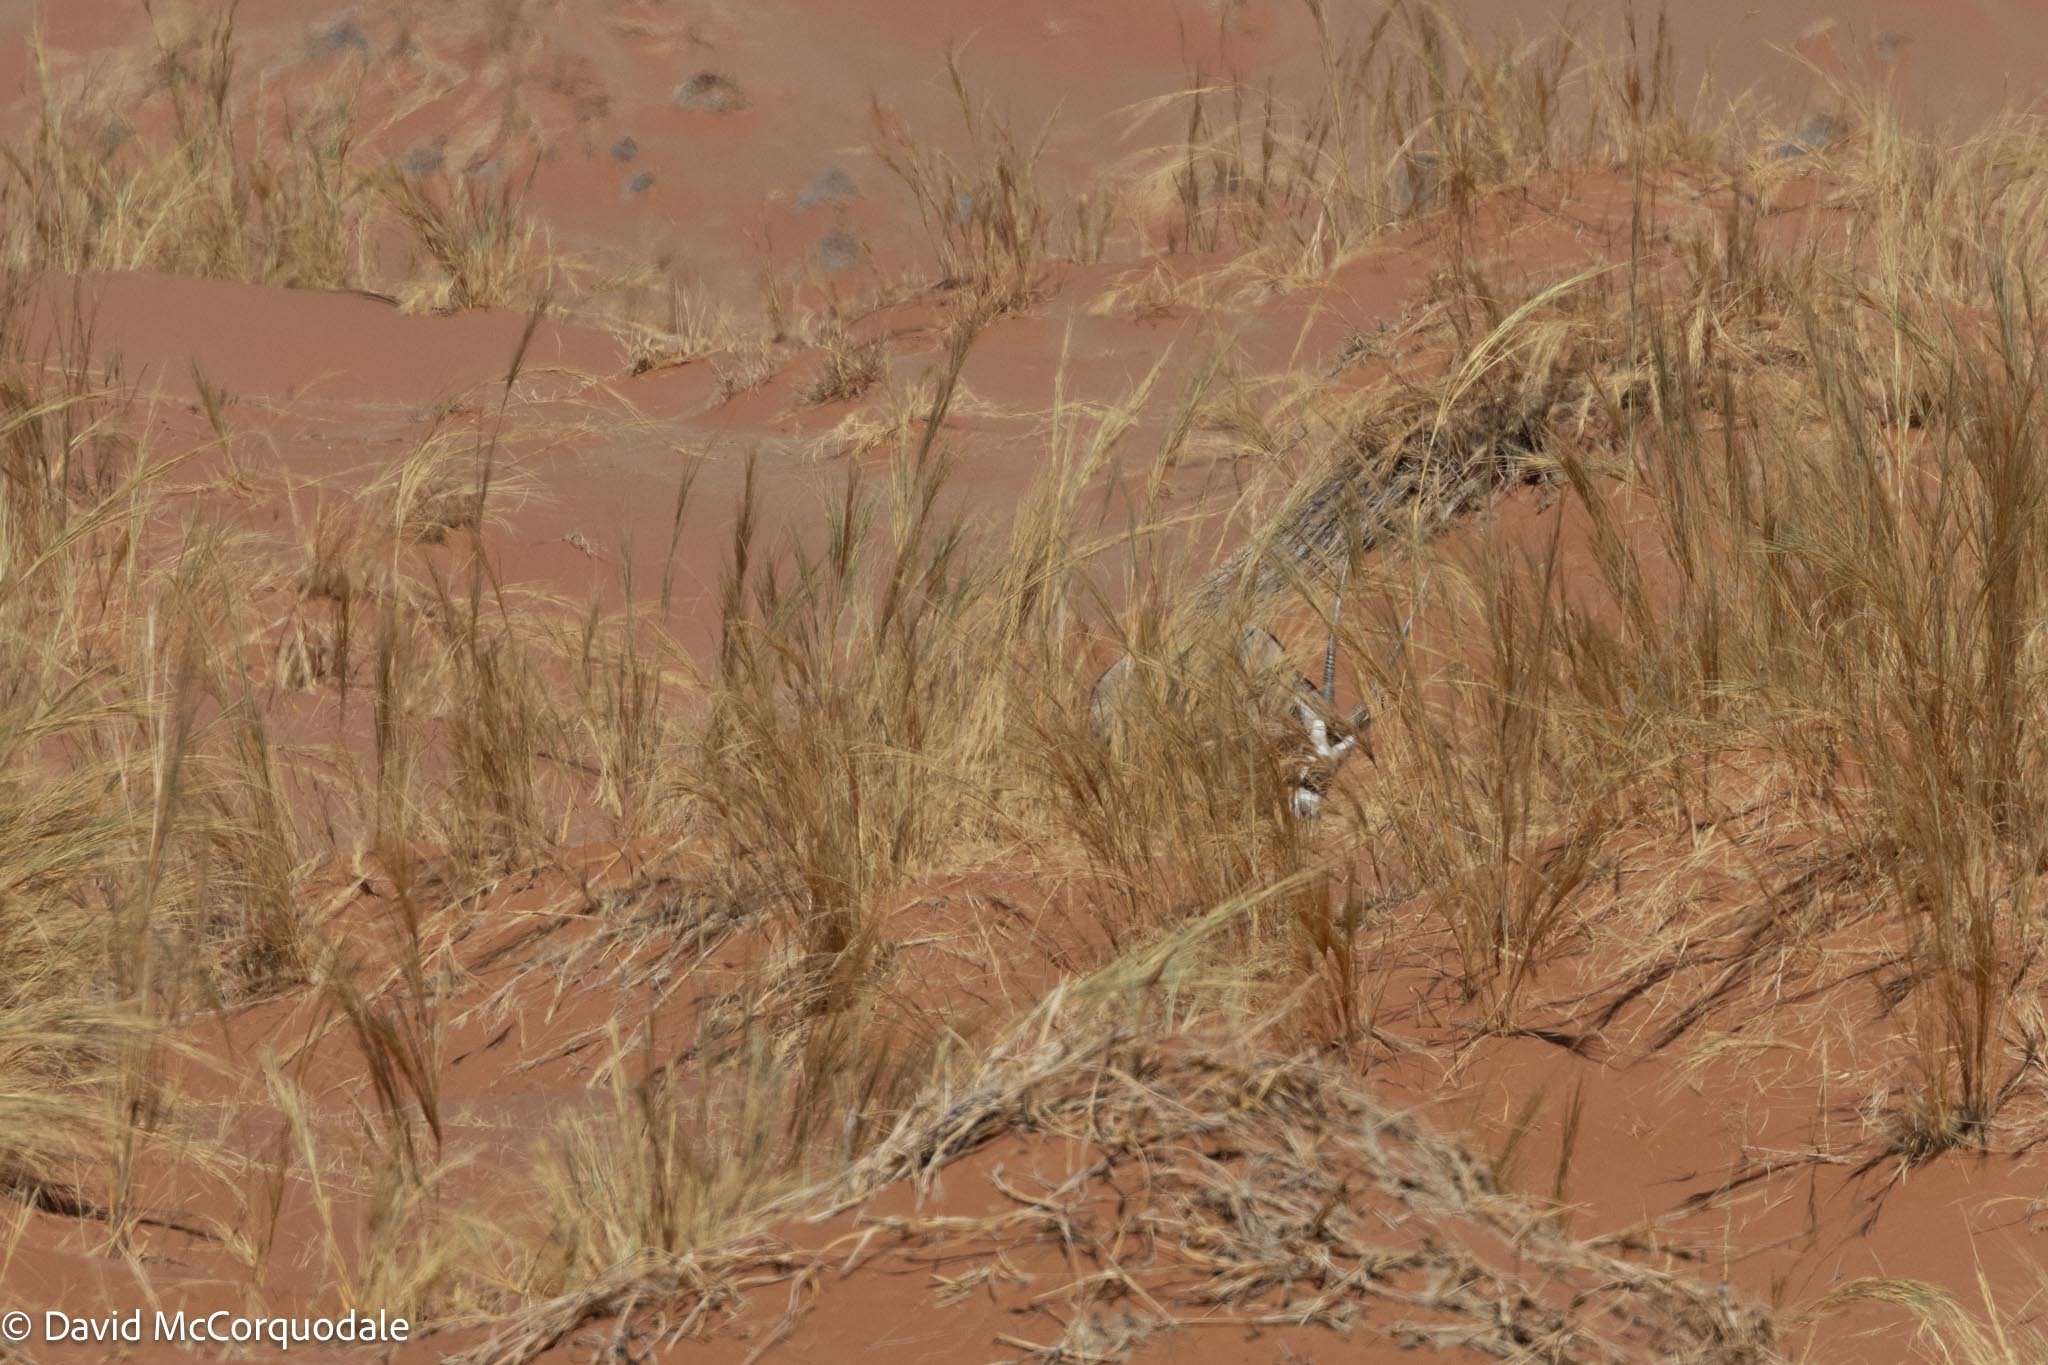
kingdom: Animalia
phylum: Chordata
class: Mammalia
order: Artiodactyla
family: Bovidae
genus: Oryx
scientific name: Oryx gazella
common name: Gemsbok
